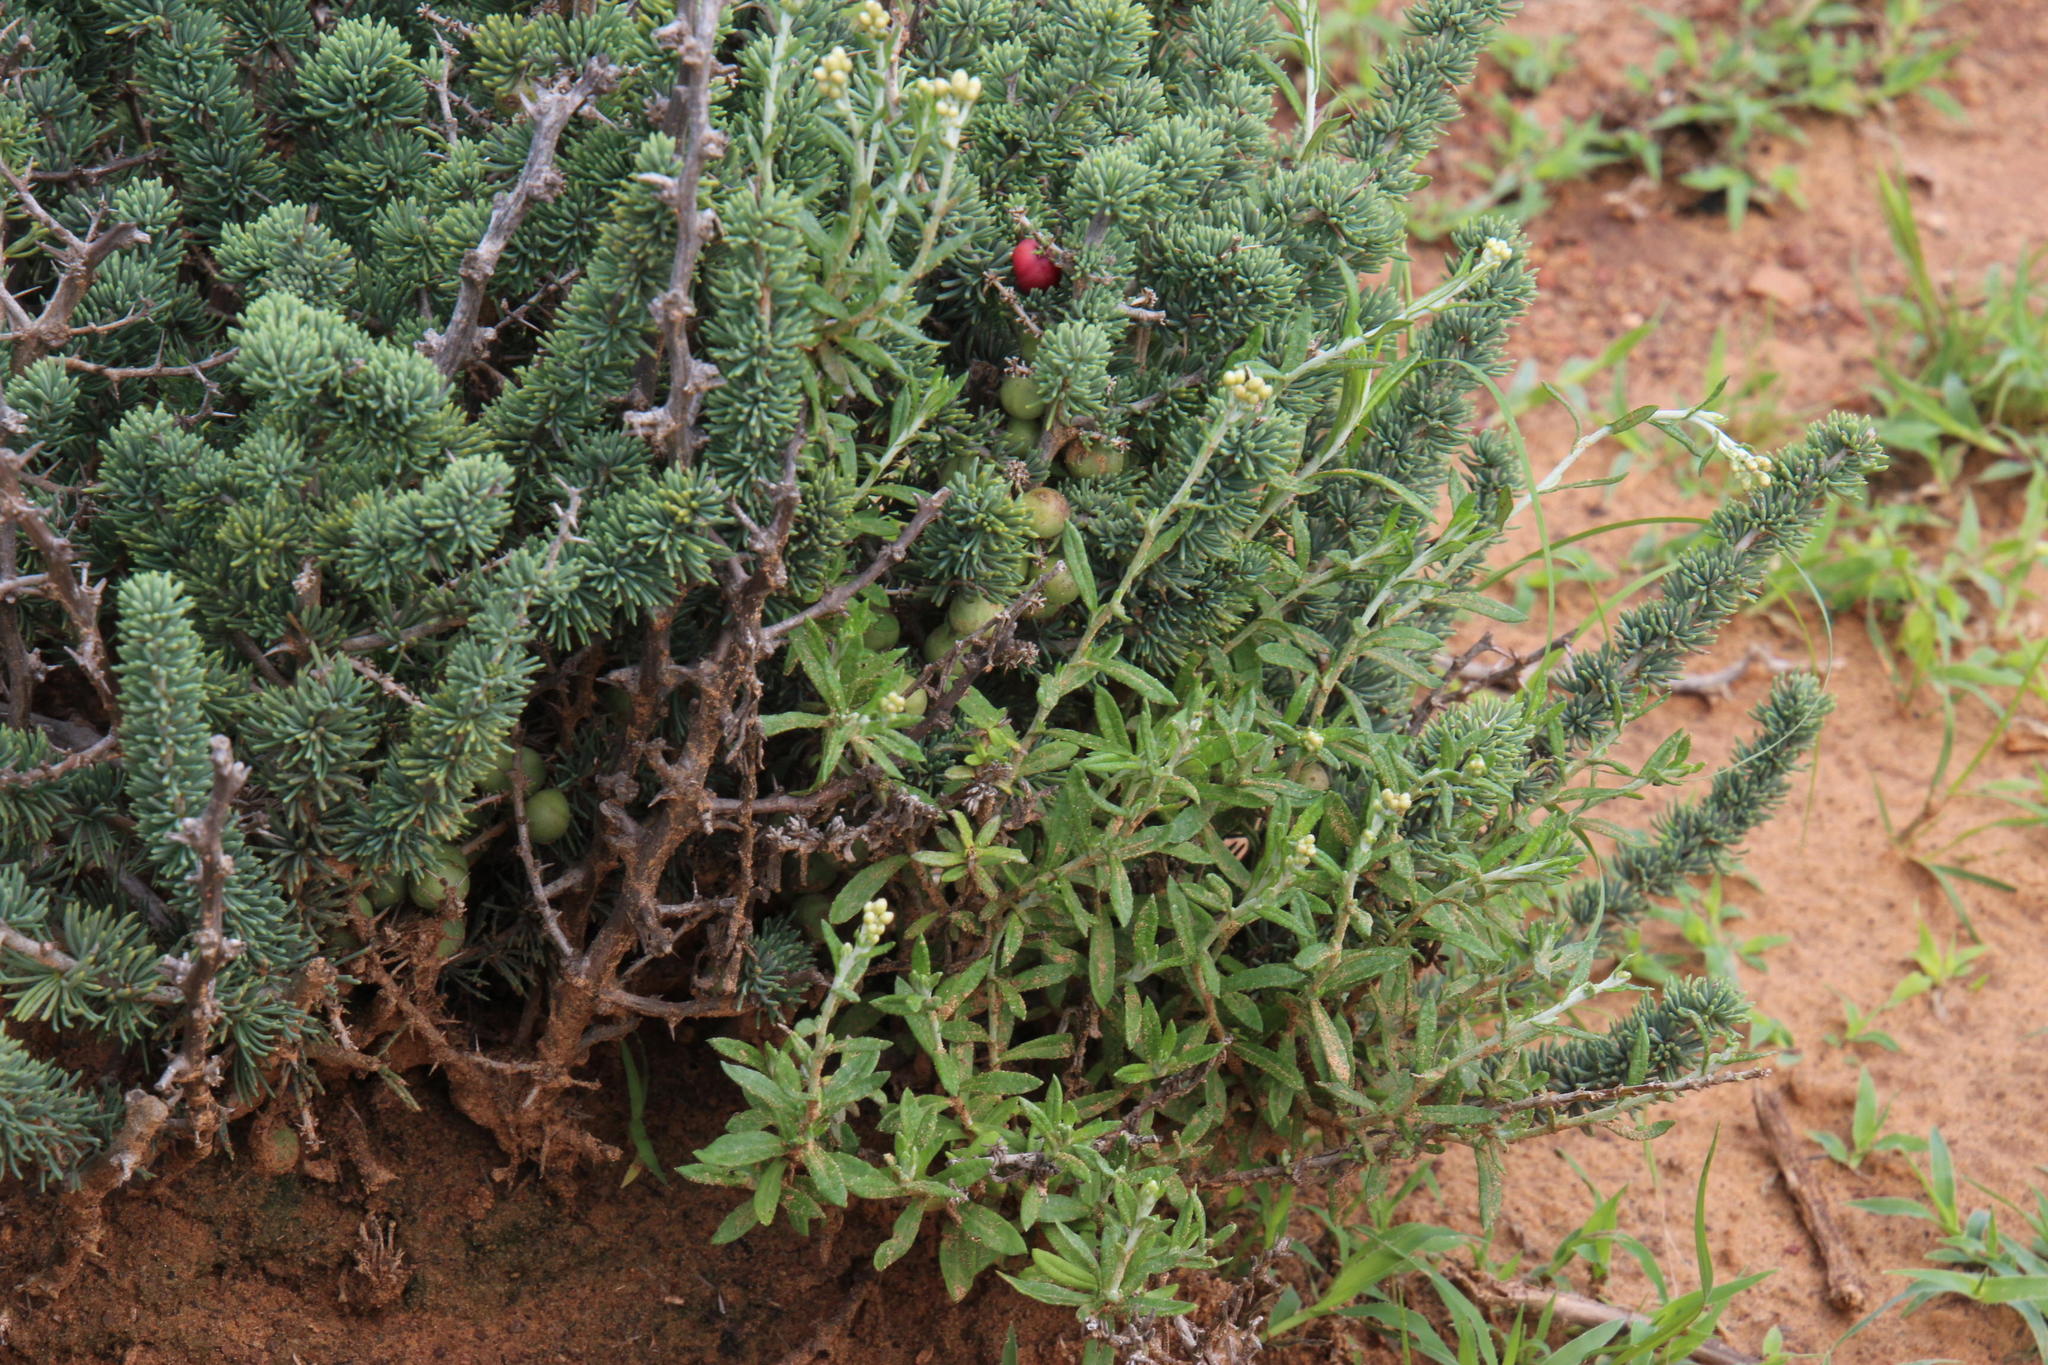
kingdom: Plantae
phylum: Tracheophyta
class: Magnoliopsida
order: Asterales
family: Asteraceae
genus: Helichrysum
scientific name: Helichrysum rosum
